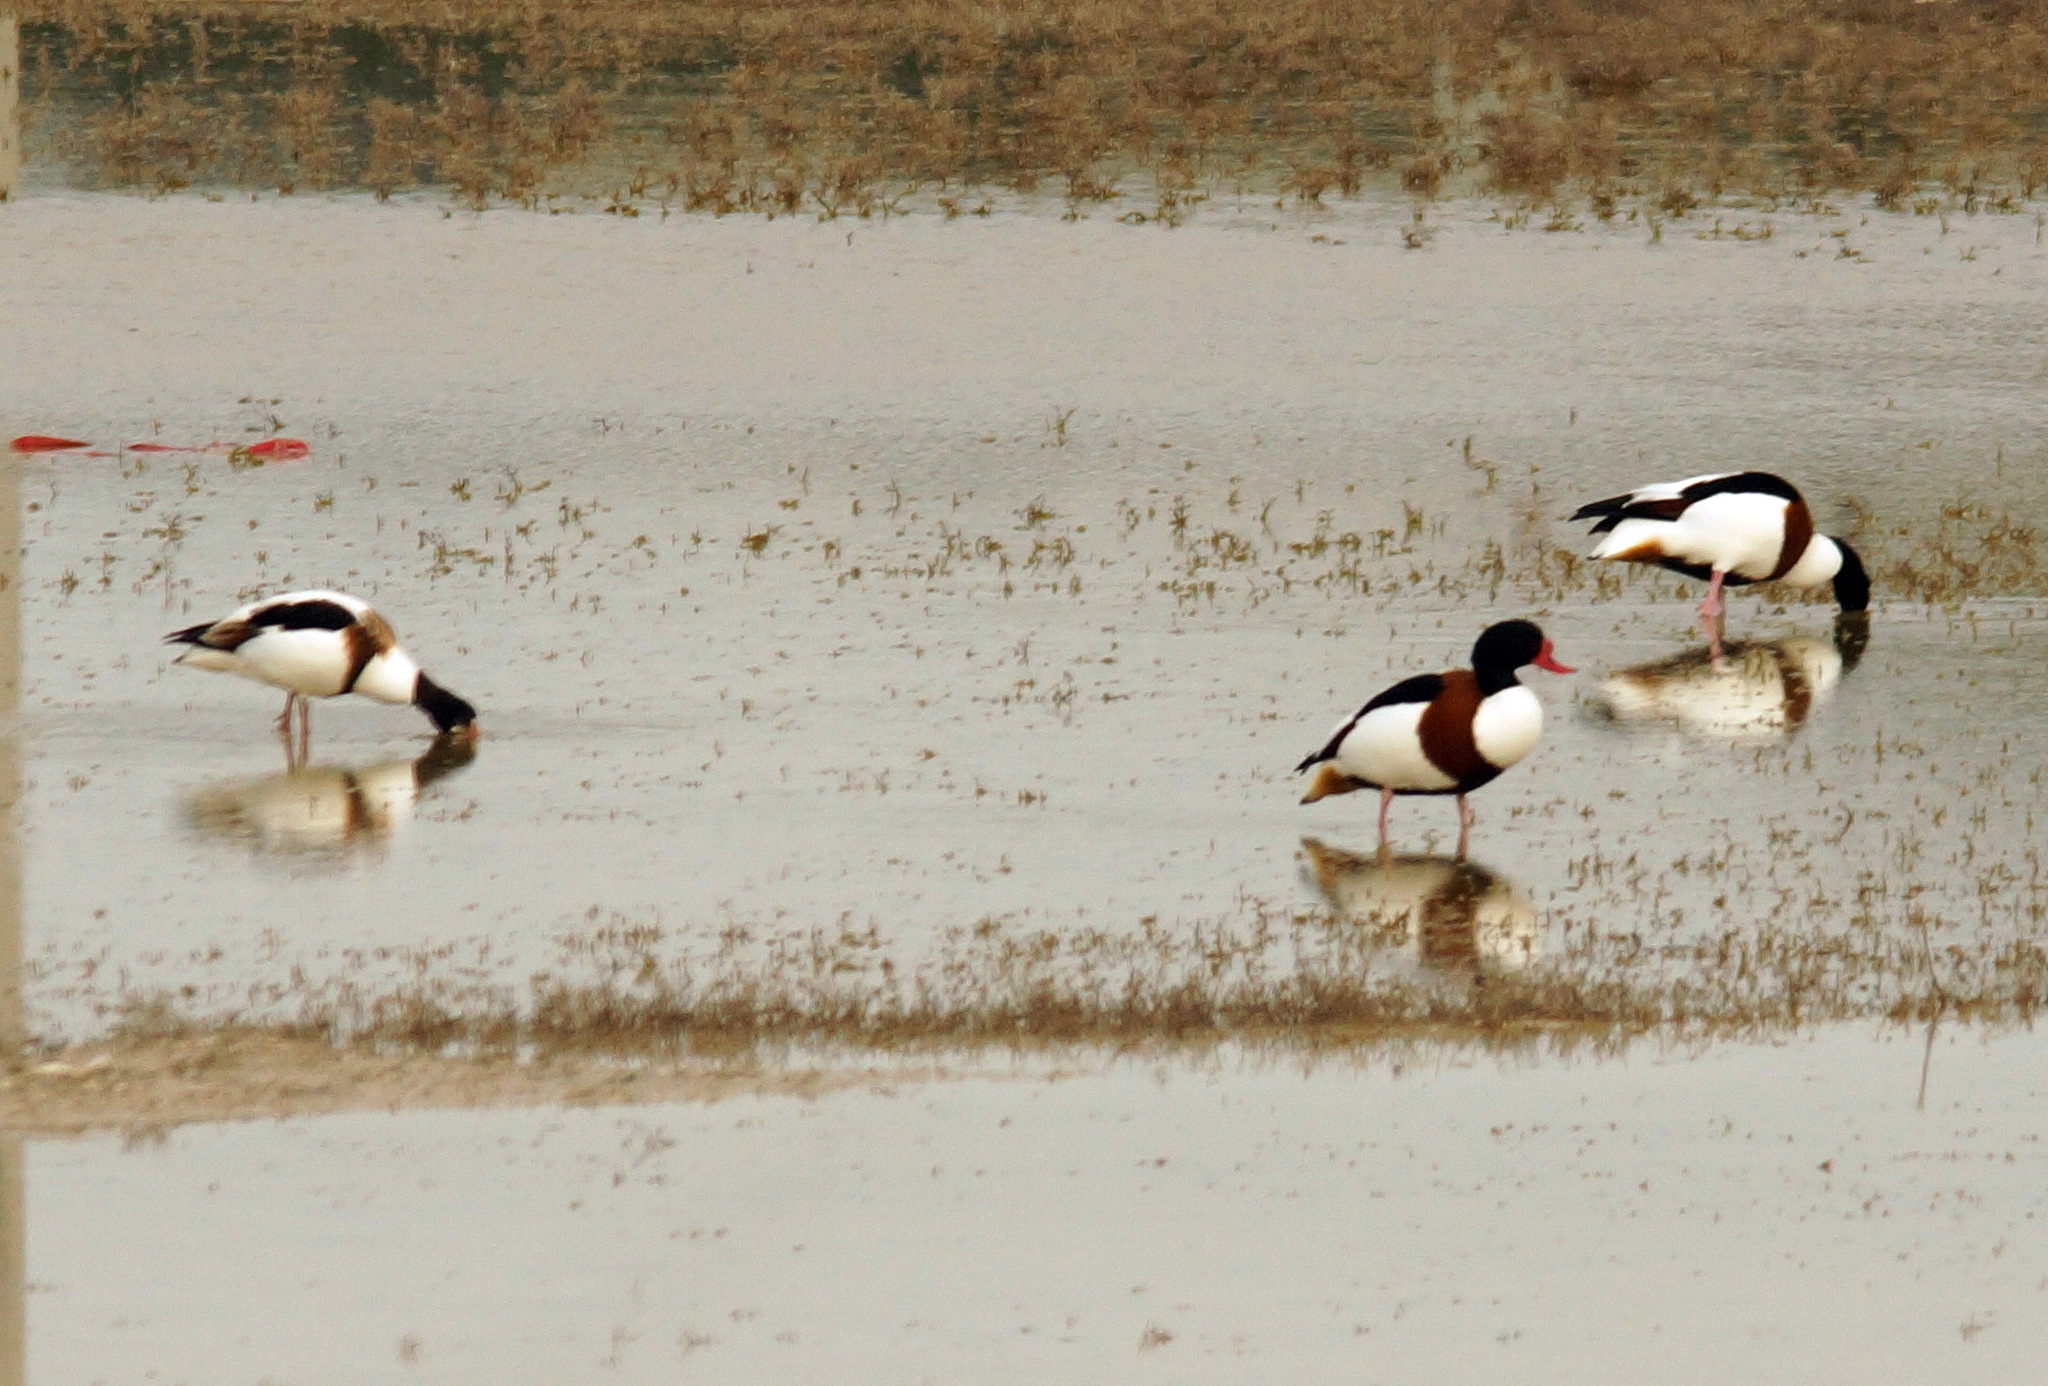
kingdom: Animalia
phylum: Chordata
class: Aves
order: Anseriformes
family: Anatidae
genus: Tadorna
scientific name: Tadorna tadorna
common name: Common shelduck
